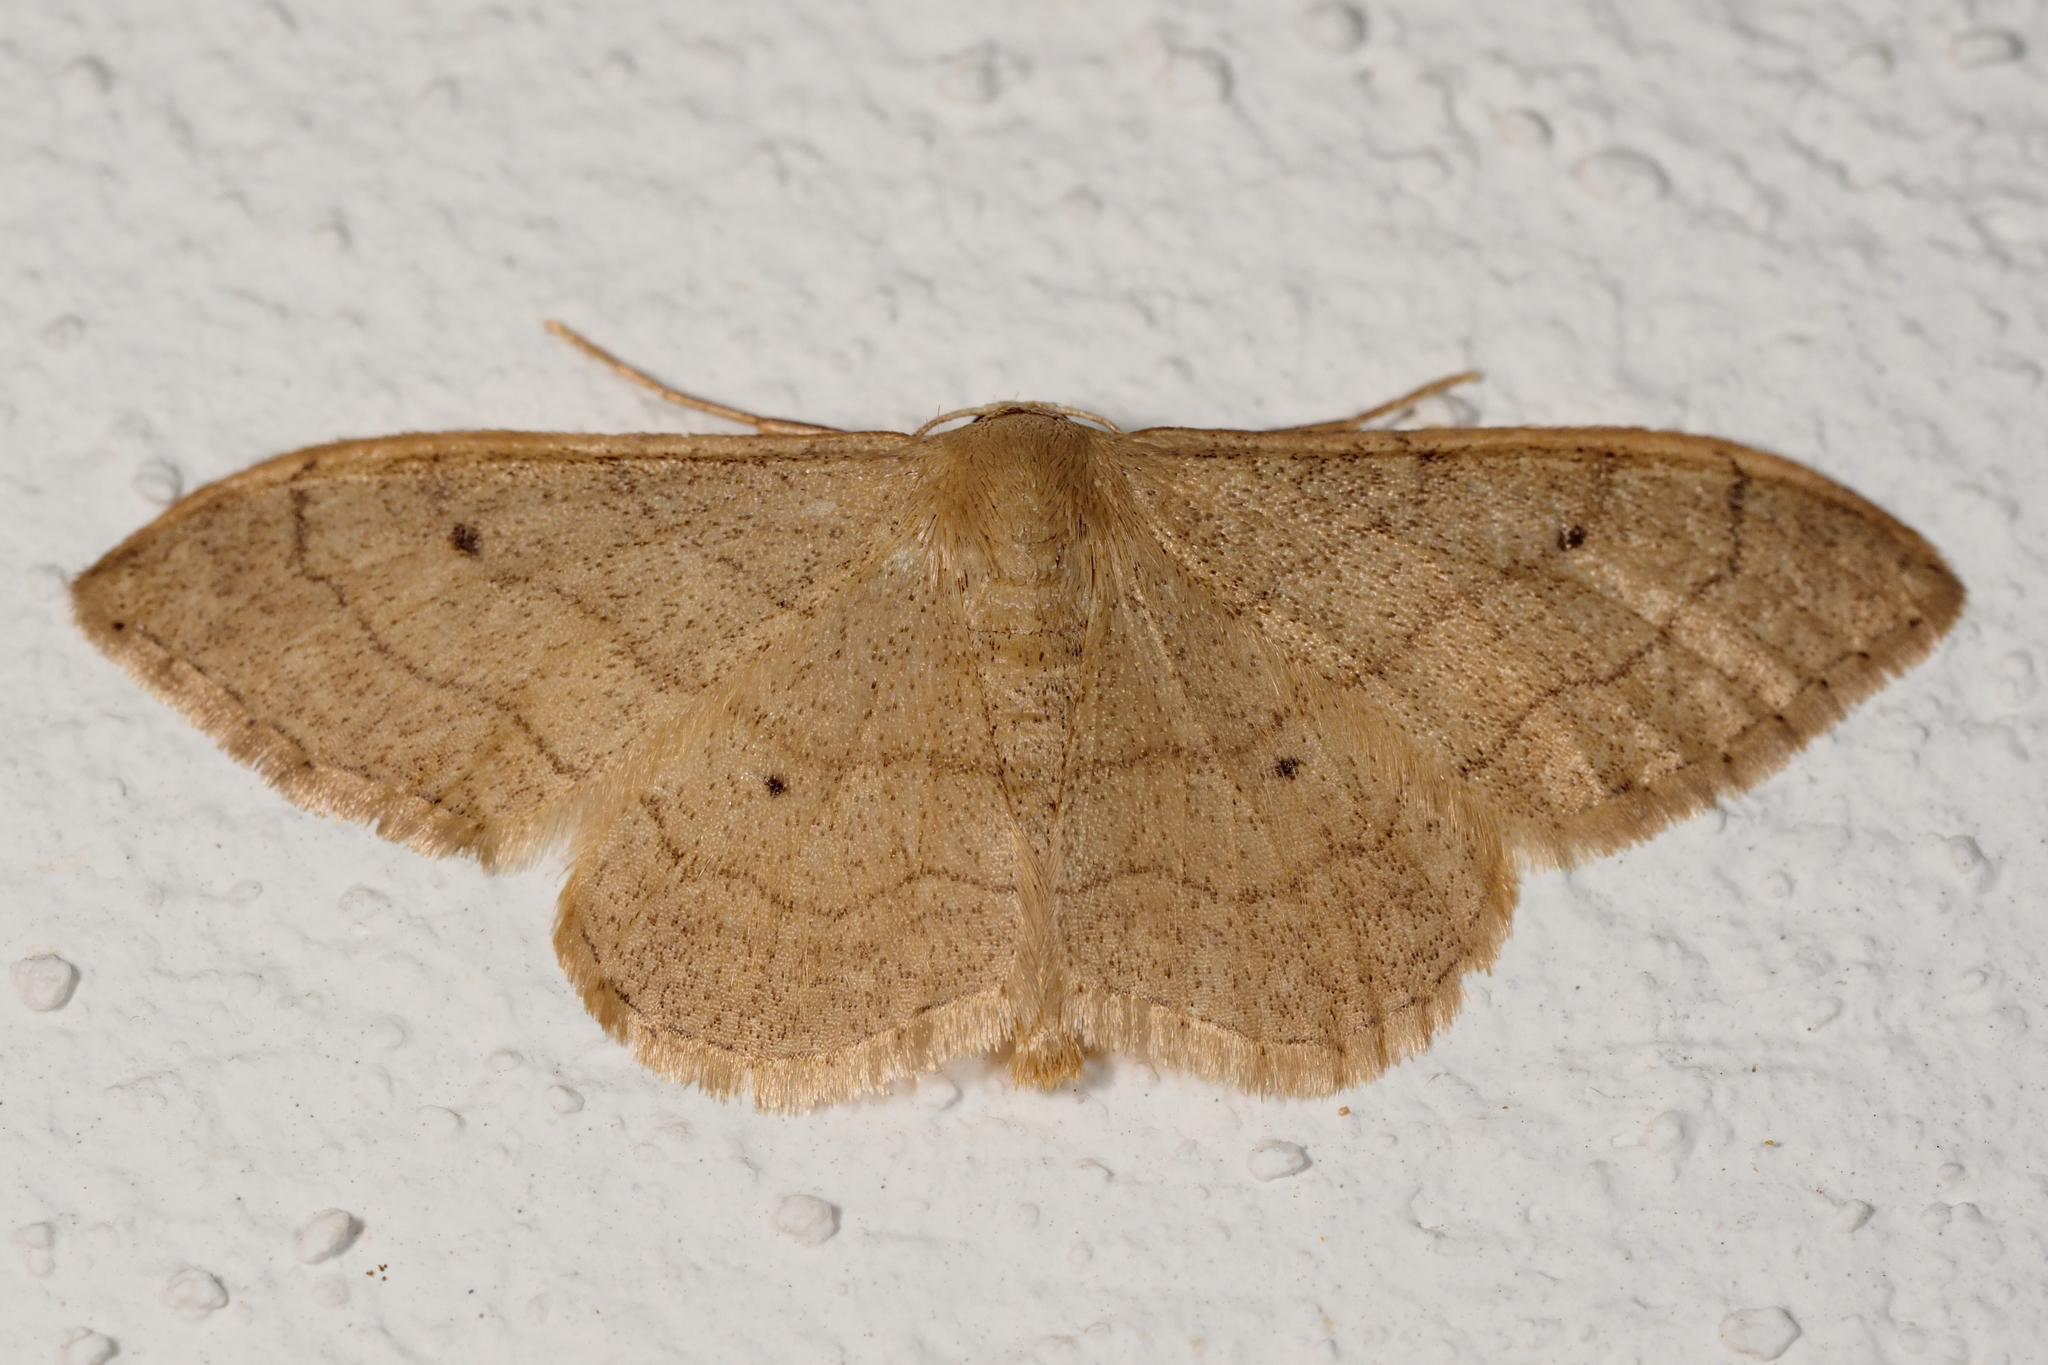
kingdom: Animalia
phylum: Arthropoda
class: Insecta
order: Lepidoptera
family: Geometridae
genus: Idaea
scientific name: Idaea aversata
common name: Riband wave
